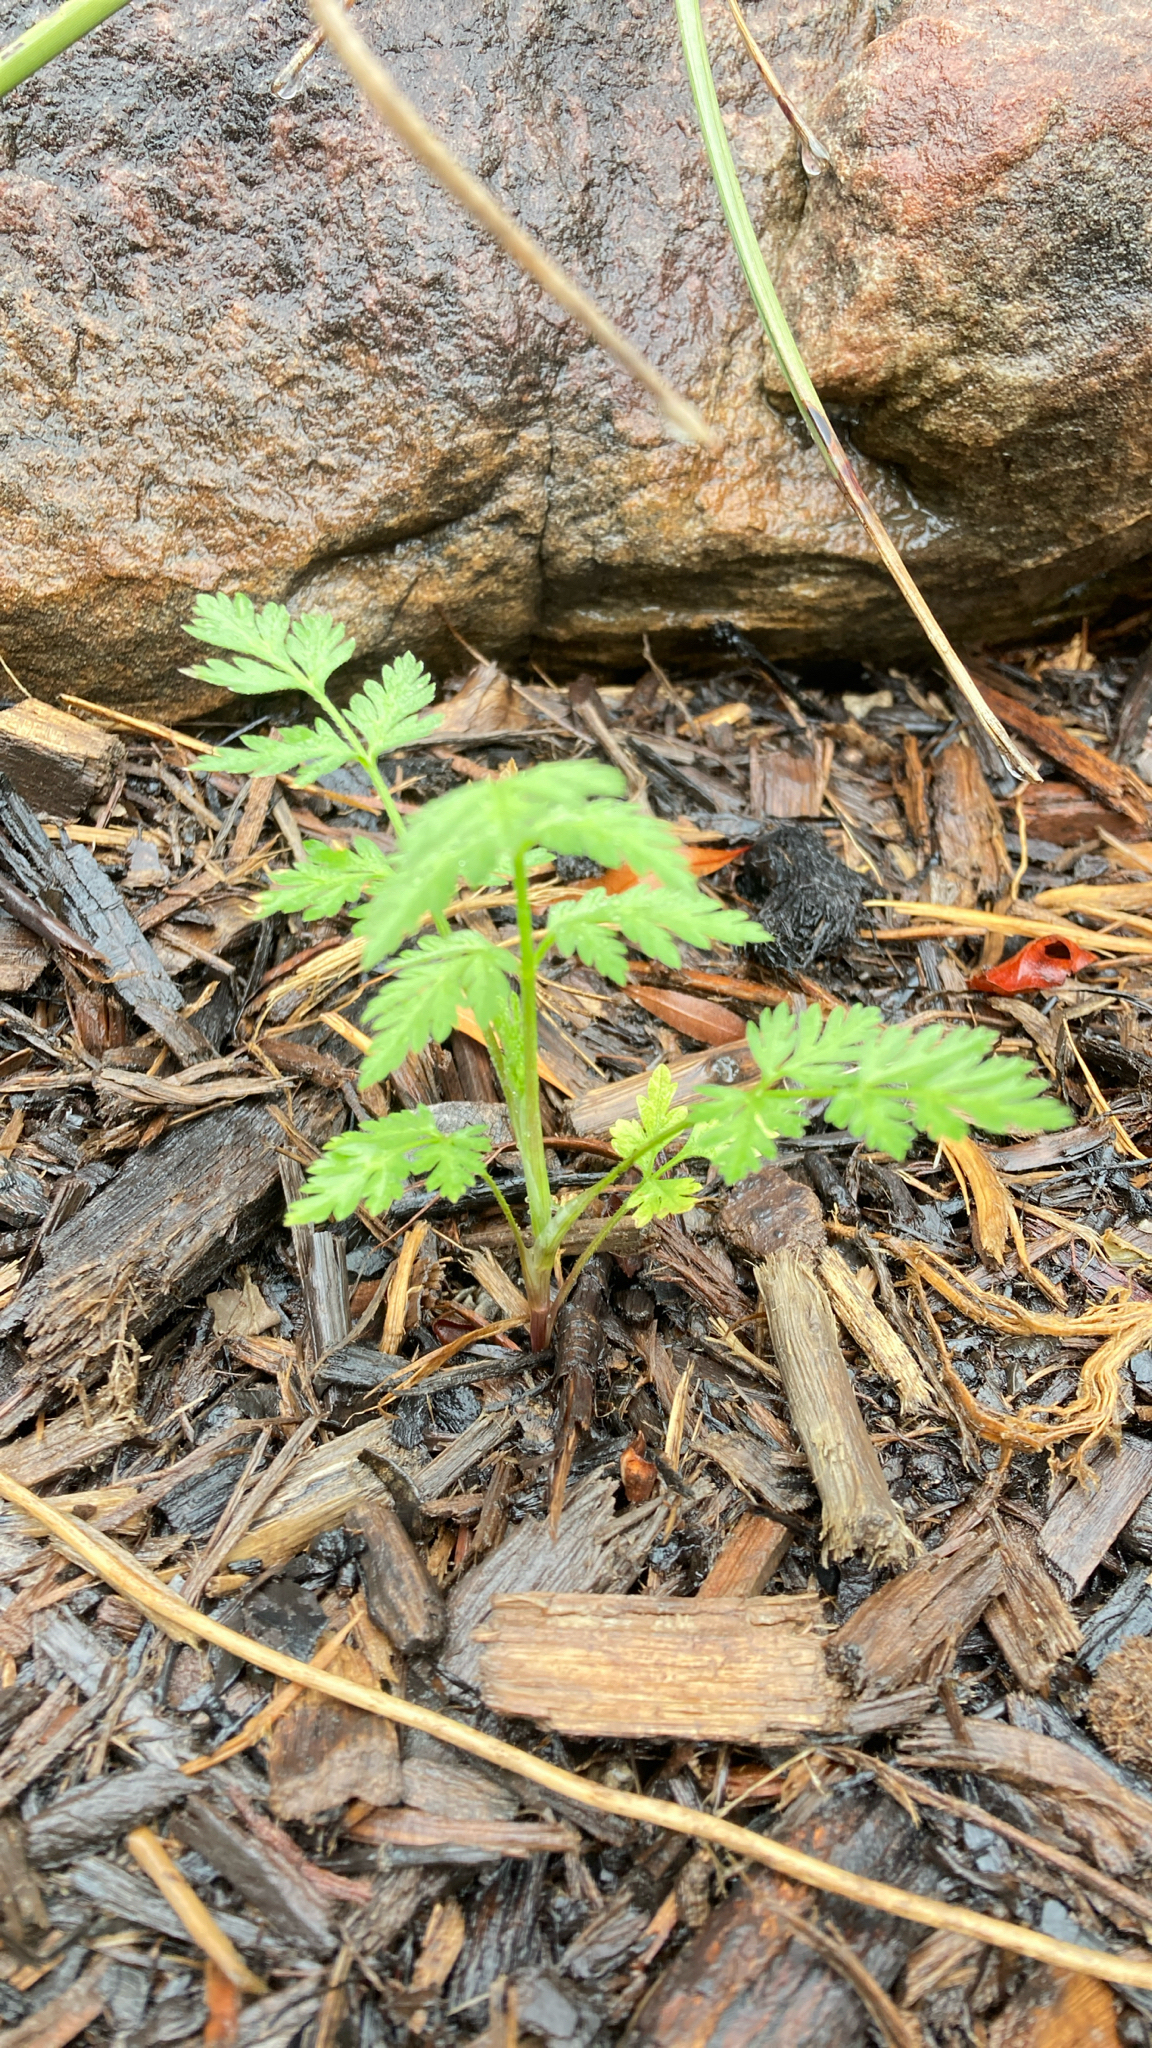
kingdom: Plantae
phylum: Tracheophyta
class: Magnoliopsida
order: Apiales
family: Apiaceae
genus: Torilis
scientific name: Torilis arvensis
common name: Spreading hedge-parsley
